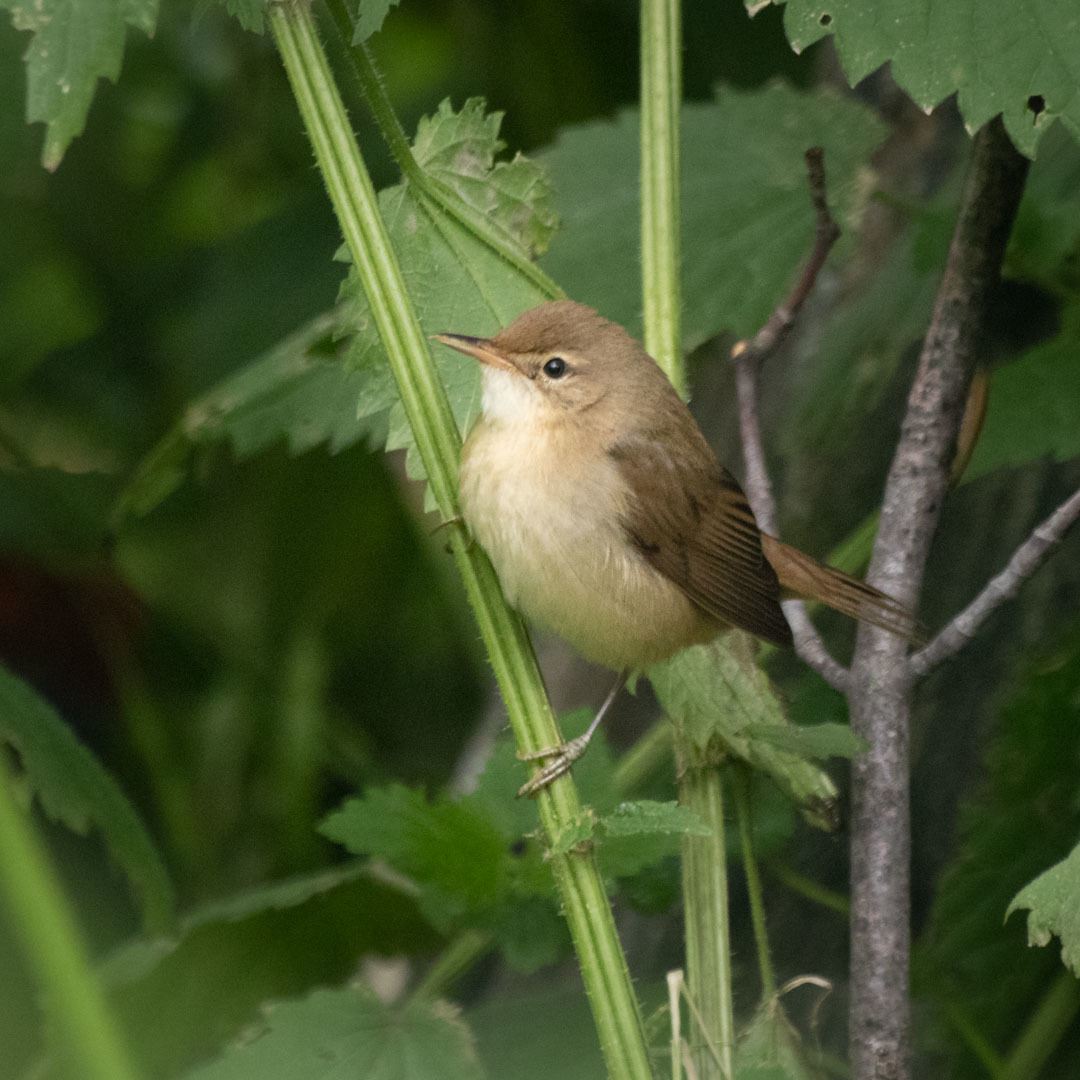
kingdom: Animalia
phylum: Chordata
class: Aves
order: Passeriformes
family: Acrocephalidae
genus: Acrocephalus
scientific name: Acrocephalus palustris
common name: Marsh warbler
